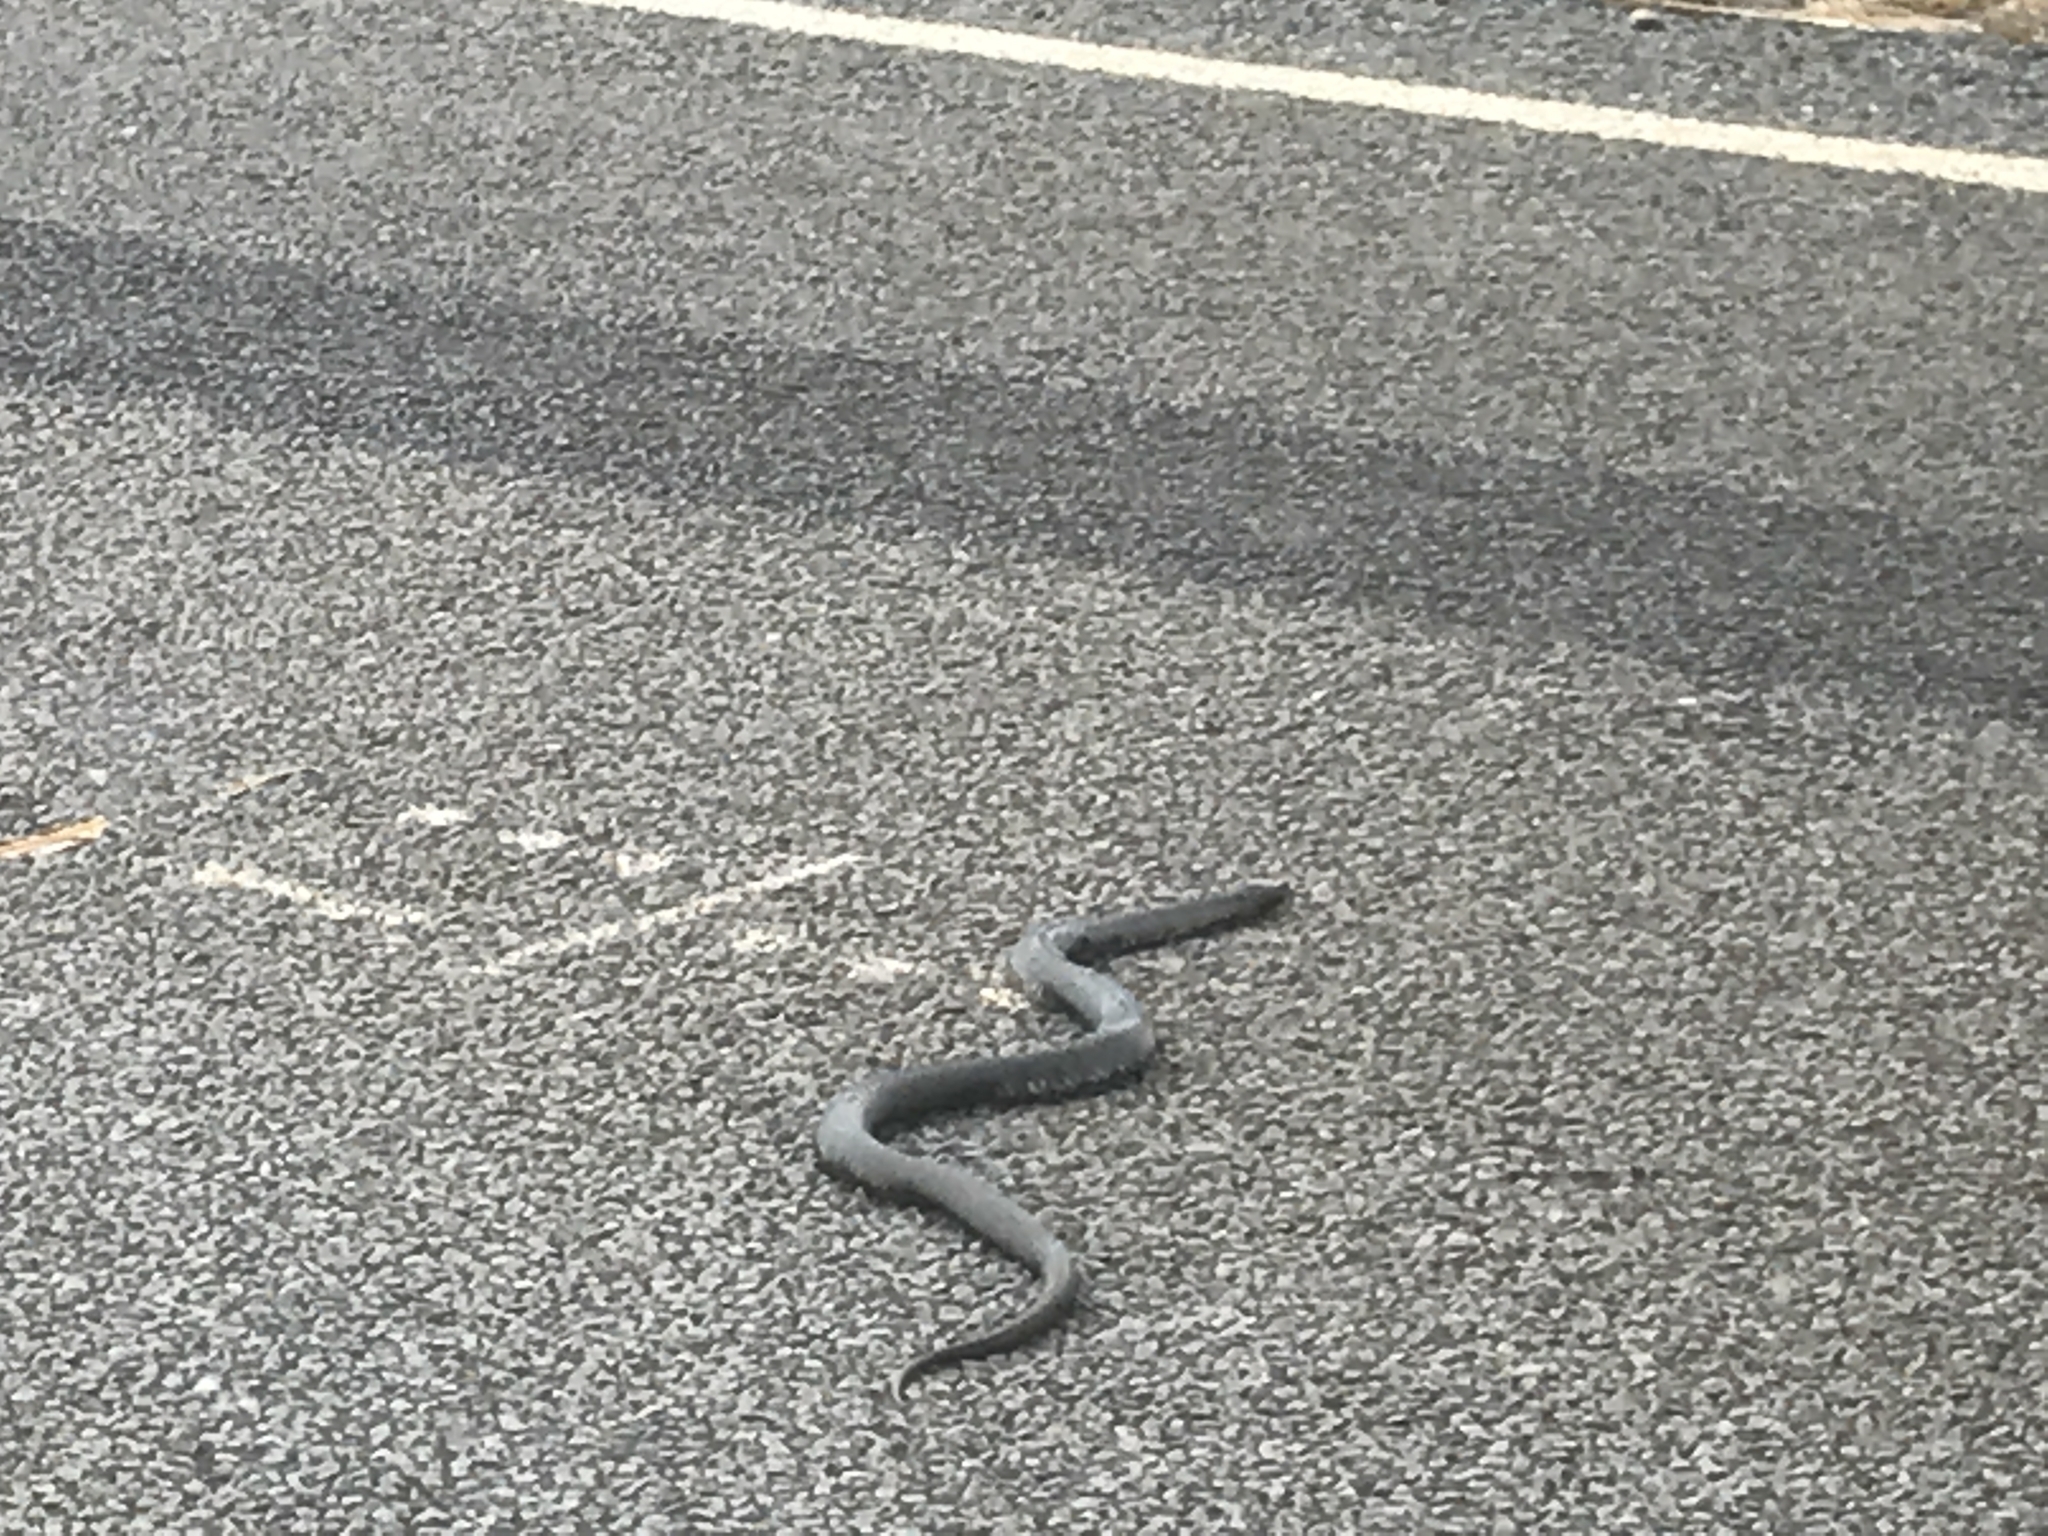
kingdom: Animalia
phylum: Chordata
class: Squamata
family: Elapidae
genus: Notechis
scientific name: Notechis scutatus
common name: Mainland tiger snake
